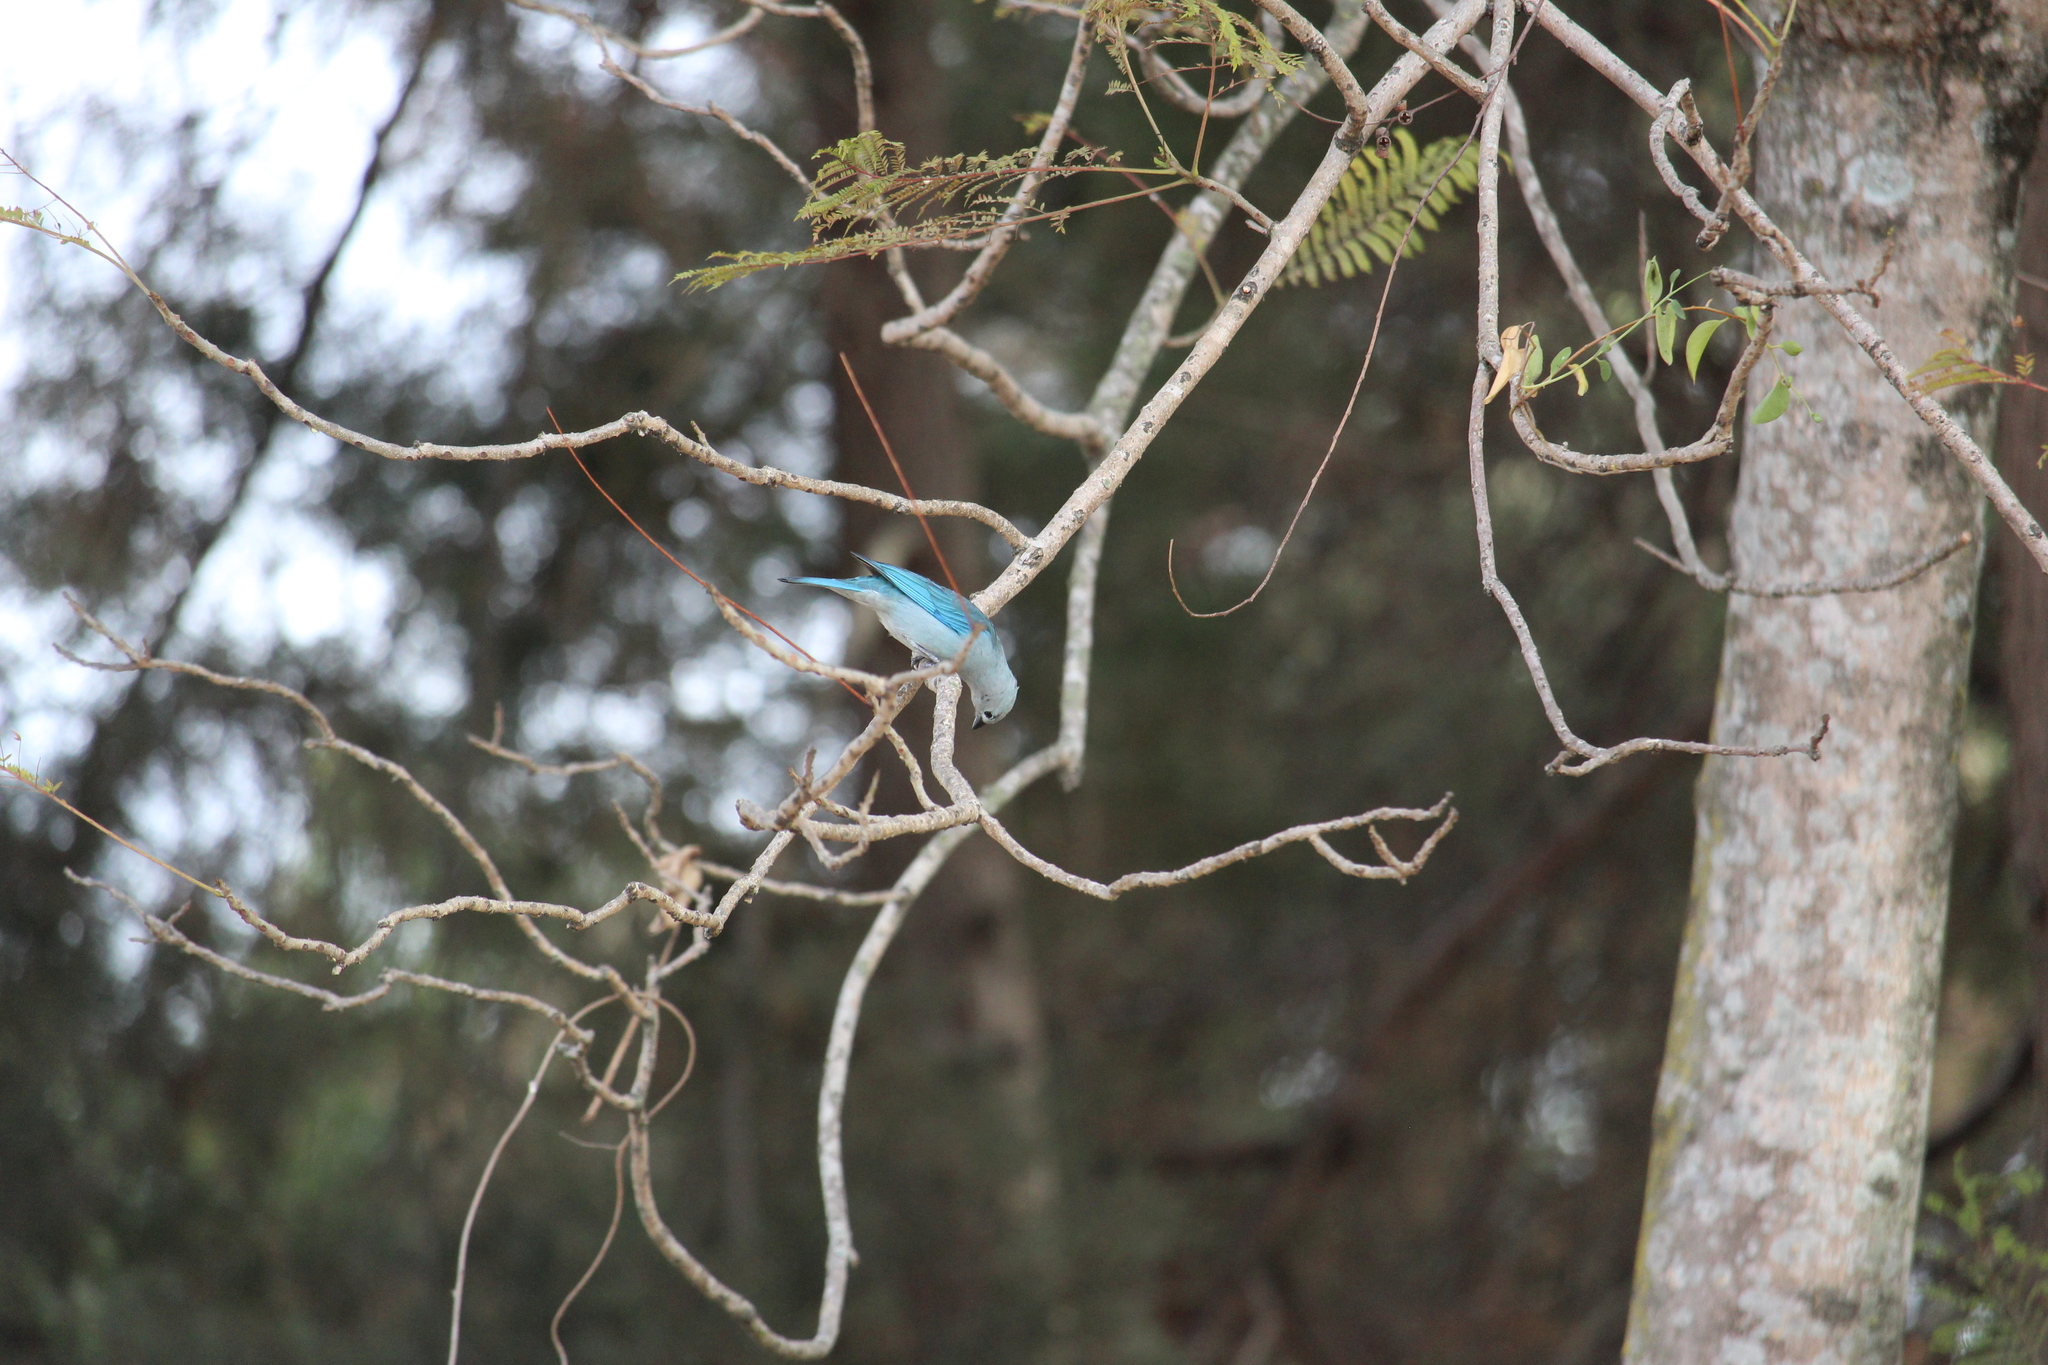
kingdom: Animalia
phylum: Chordata
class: Aves
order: Passeriformes
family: Thraupidae
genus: Thraupis
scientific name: Thraupis episcopus
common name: Blue-grey tanager
